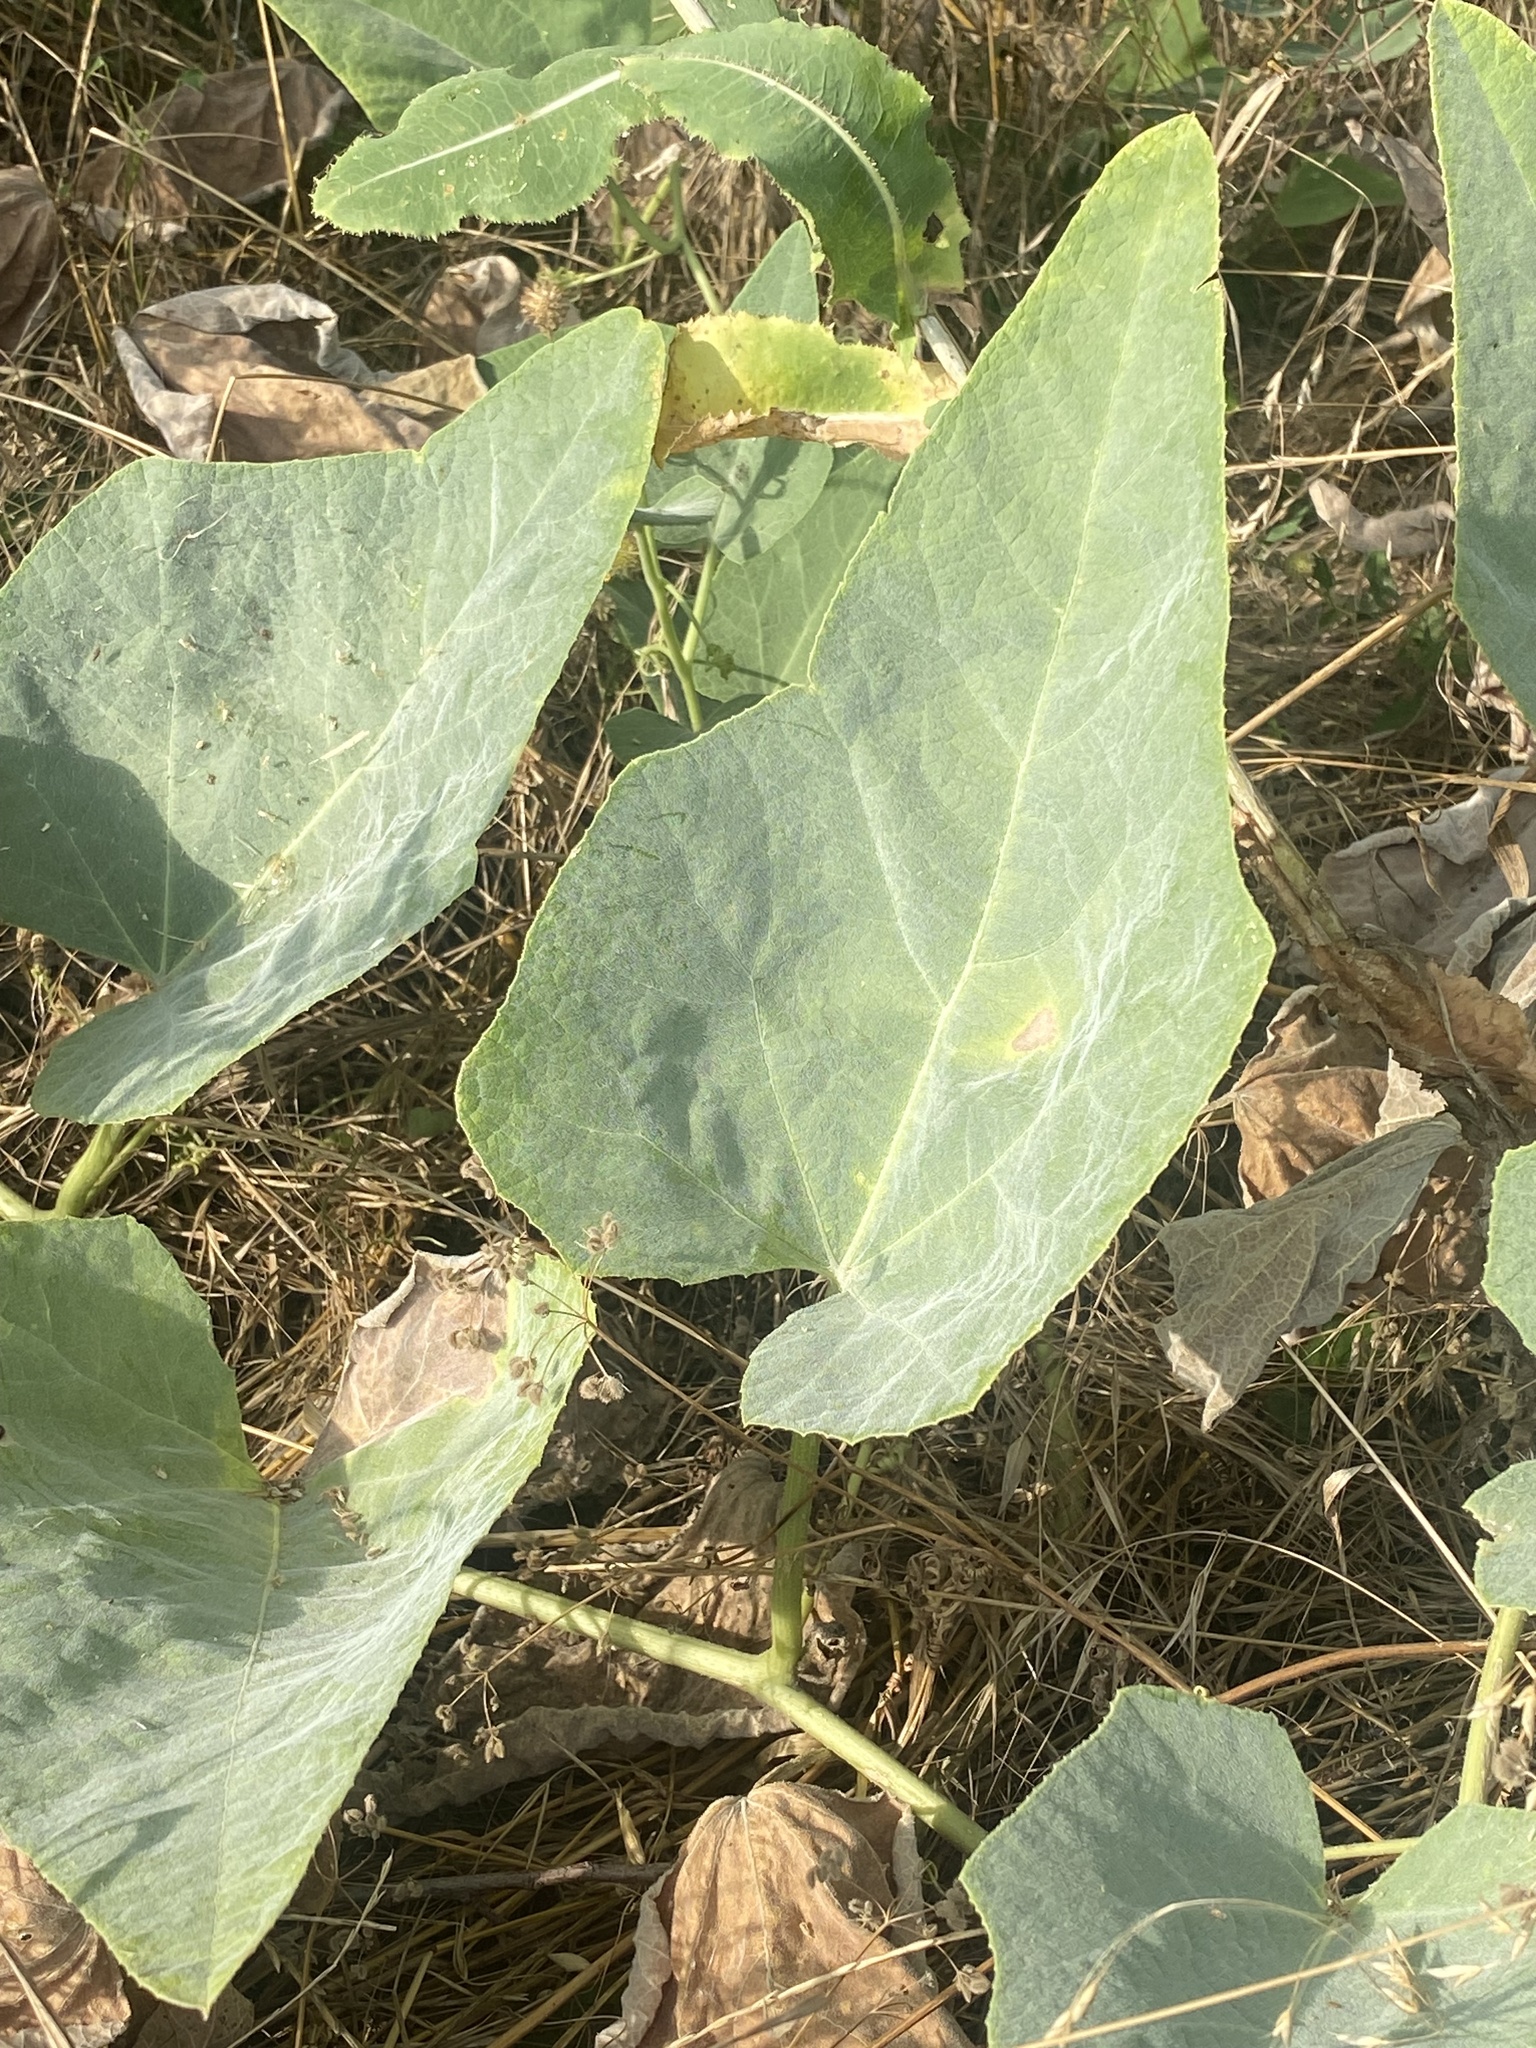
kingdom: Plantae
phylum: Tracheophyta
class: Magnoliopsida
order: Cucurbitales
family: Cucurbitaceae
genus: Cucurbita
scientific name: Cucurbita foetidissima
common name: Buffalo gourd
